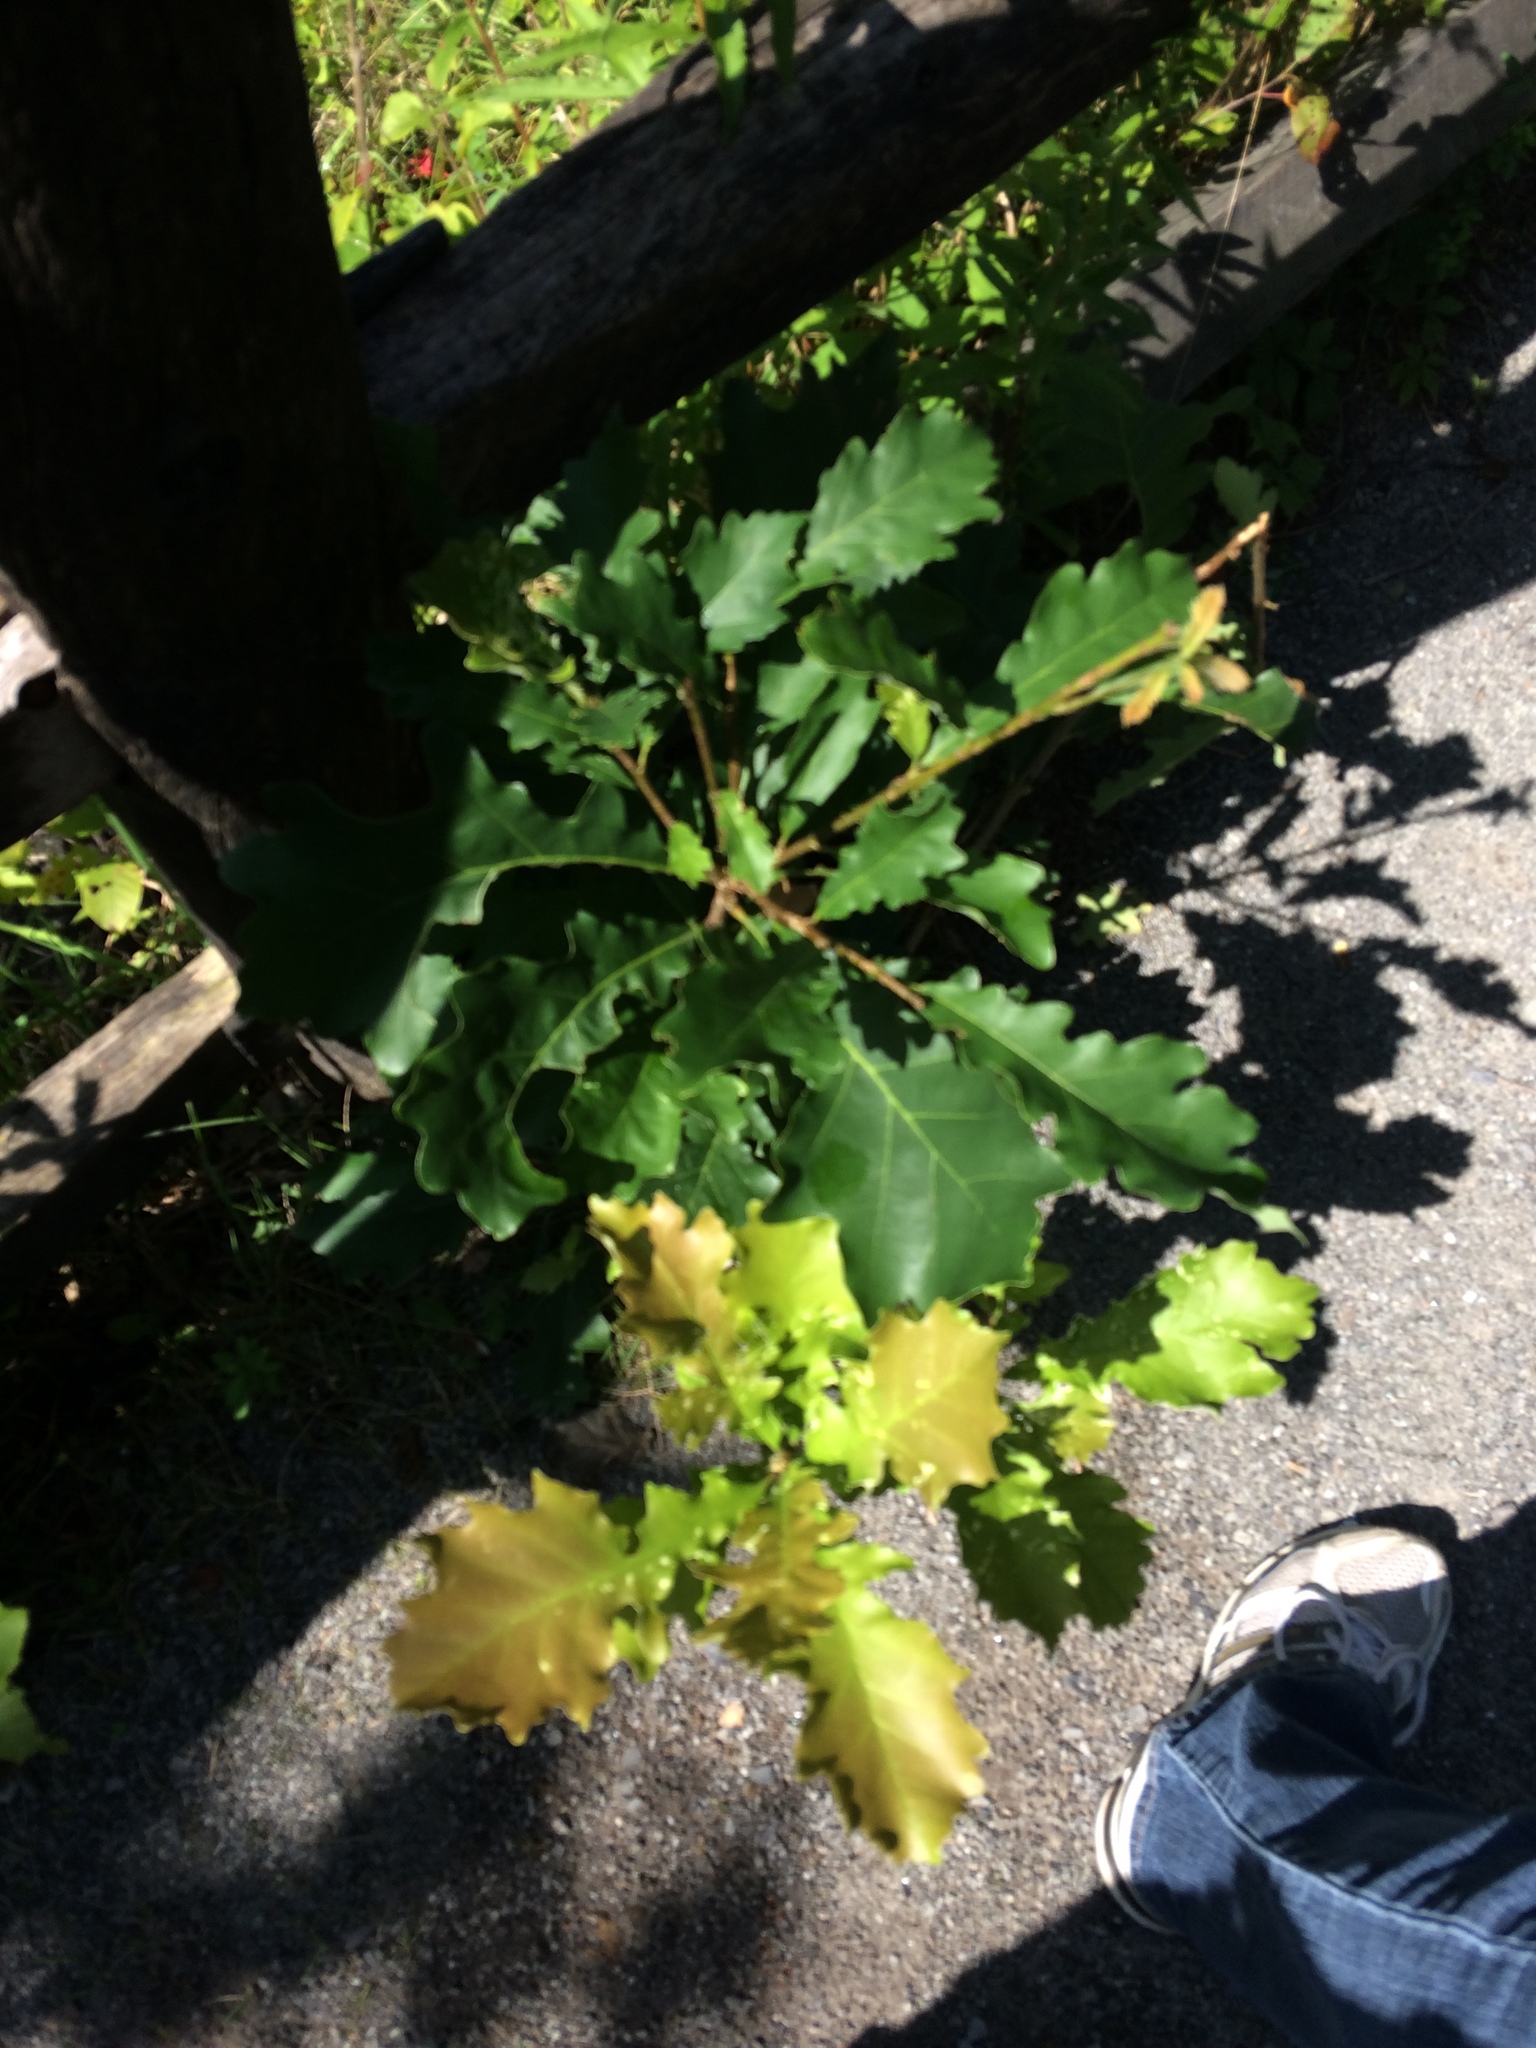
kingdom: Plantae
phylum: Tracheophyta
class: Magnoliopsida
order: Fagales
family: Fagaceae
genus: Quercus
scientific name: Quercus macrocarpa
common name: Bur oak
